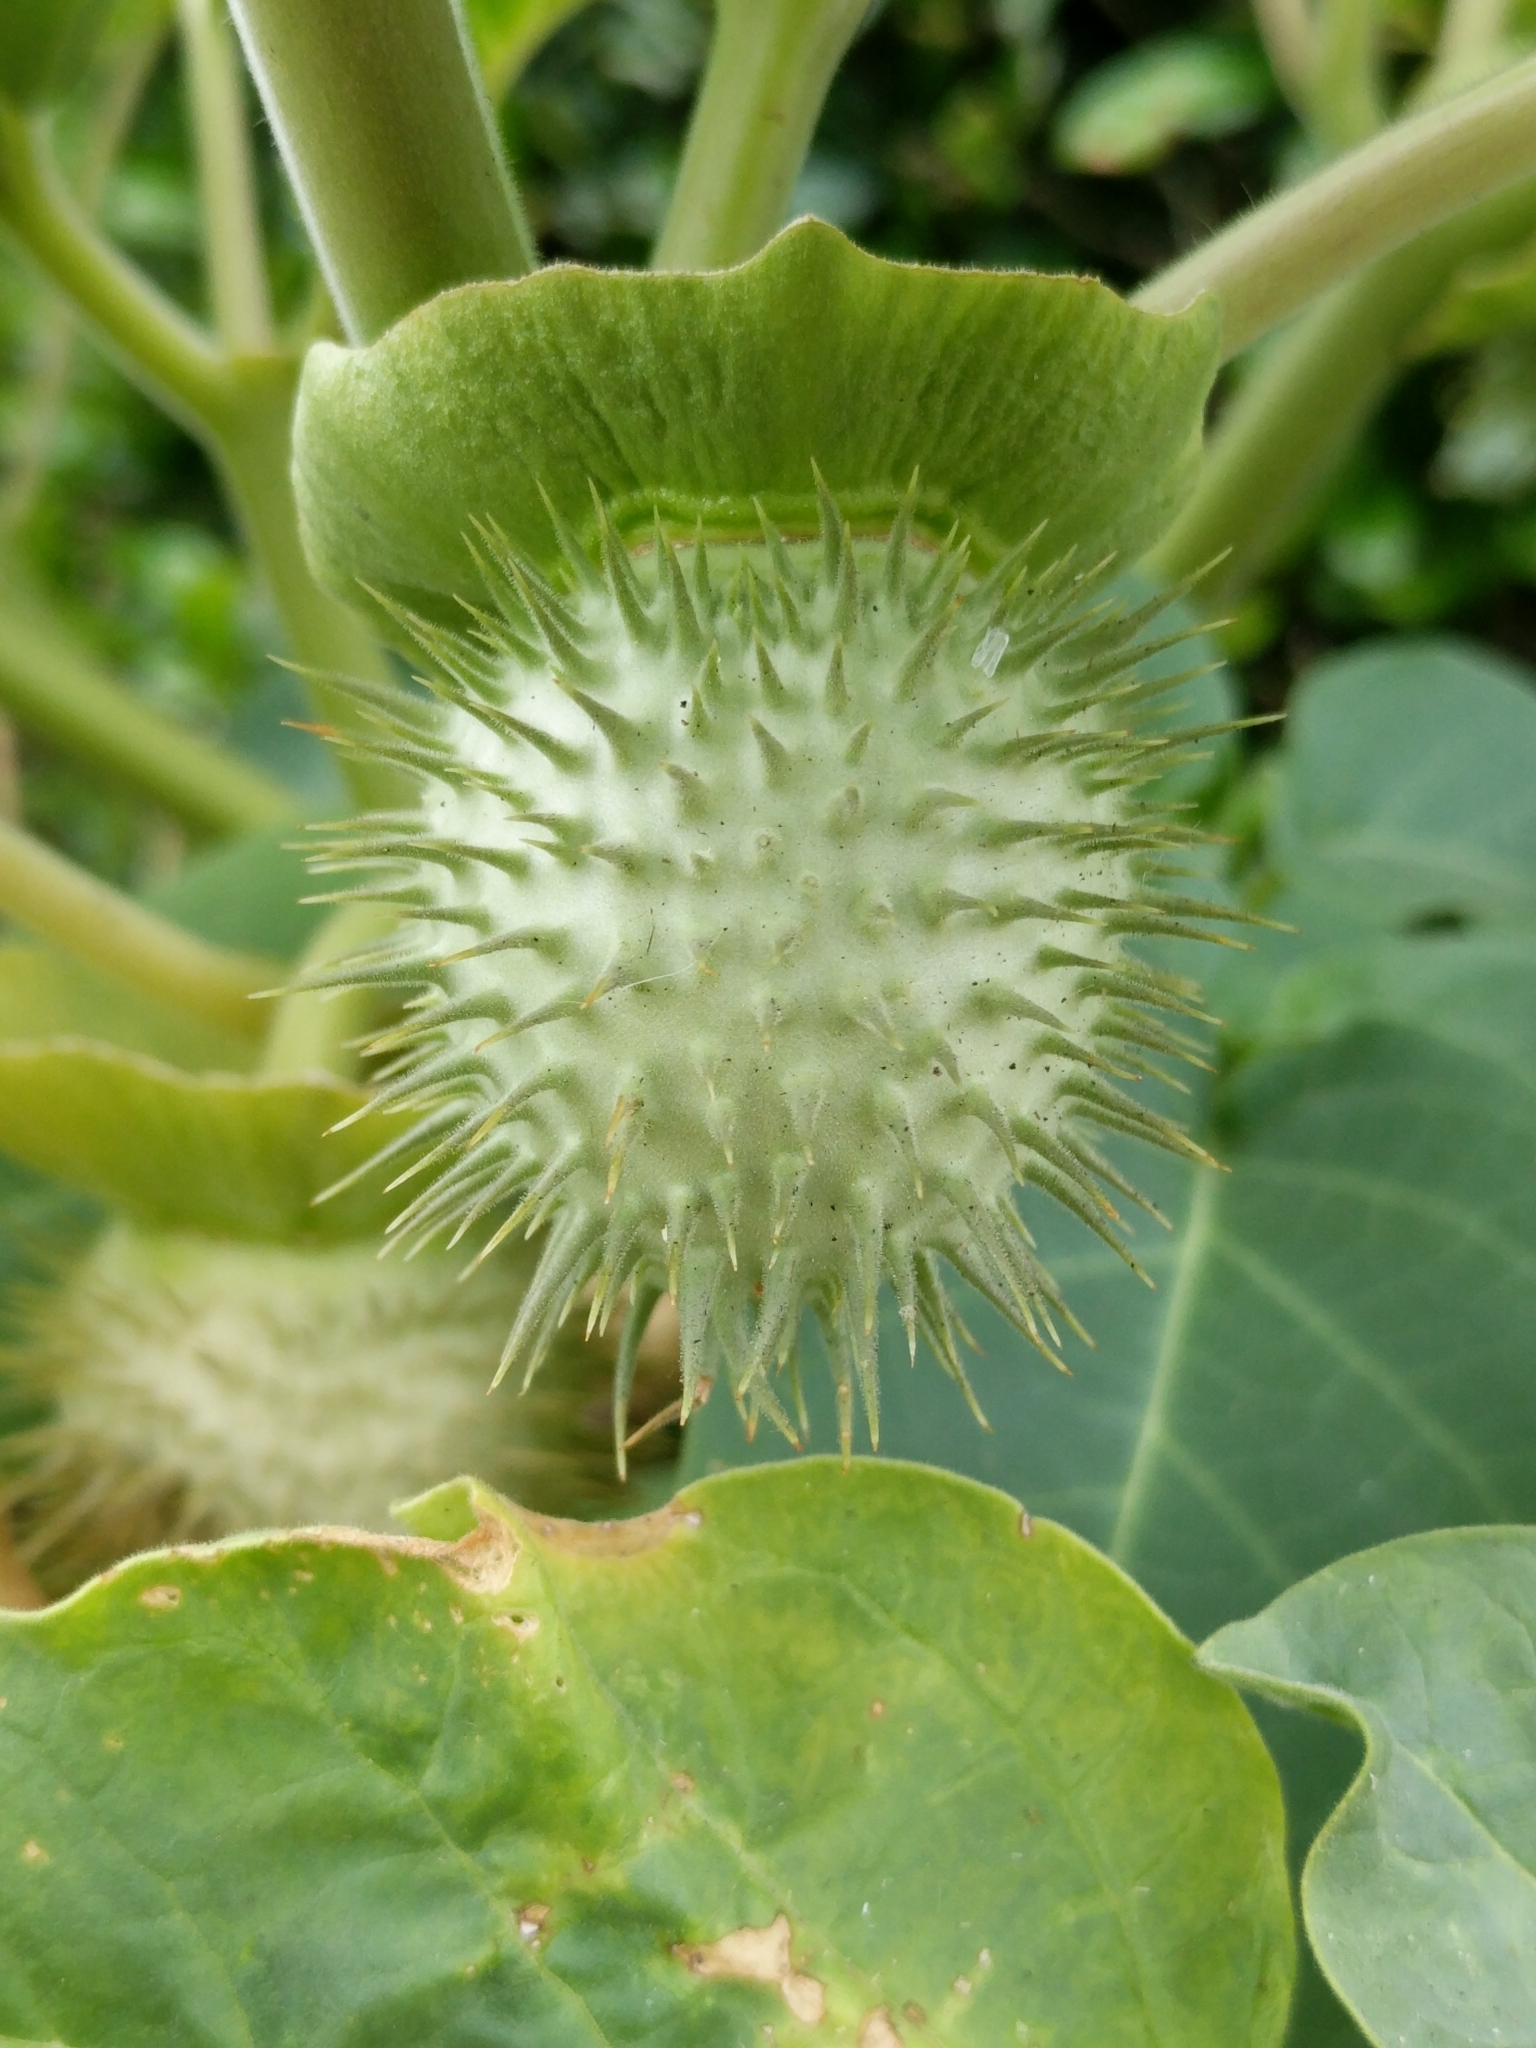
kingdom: Plantae
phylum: Tracheophyta
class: Magnoliopsida
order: Solanales
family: Solanaceae
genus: Datura
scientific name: Datura wrightii
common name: Sacred thorn-apple
